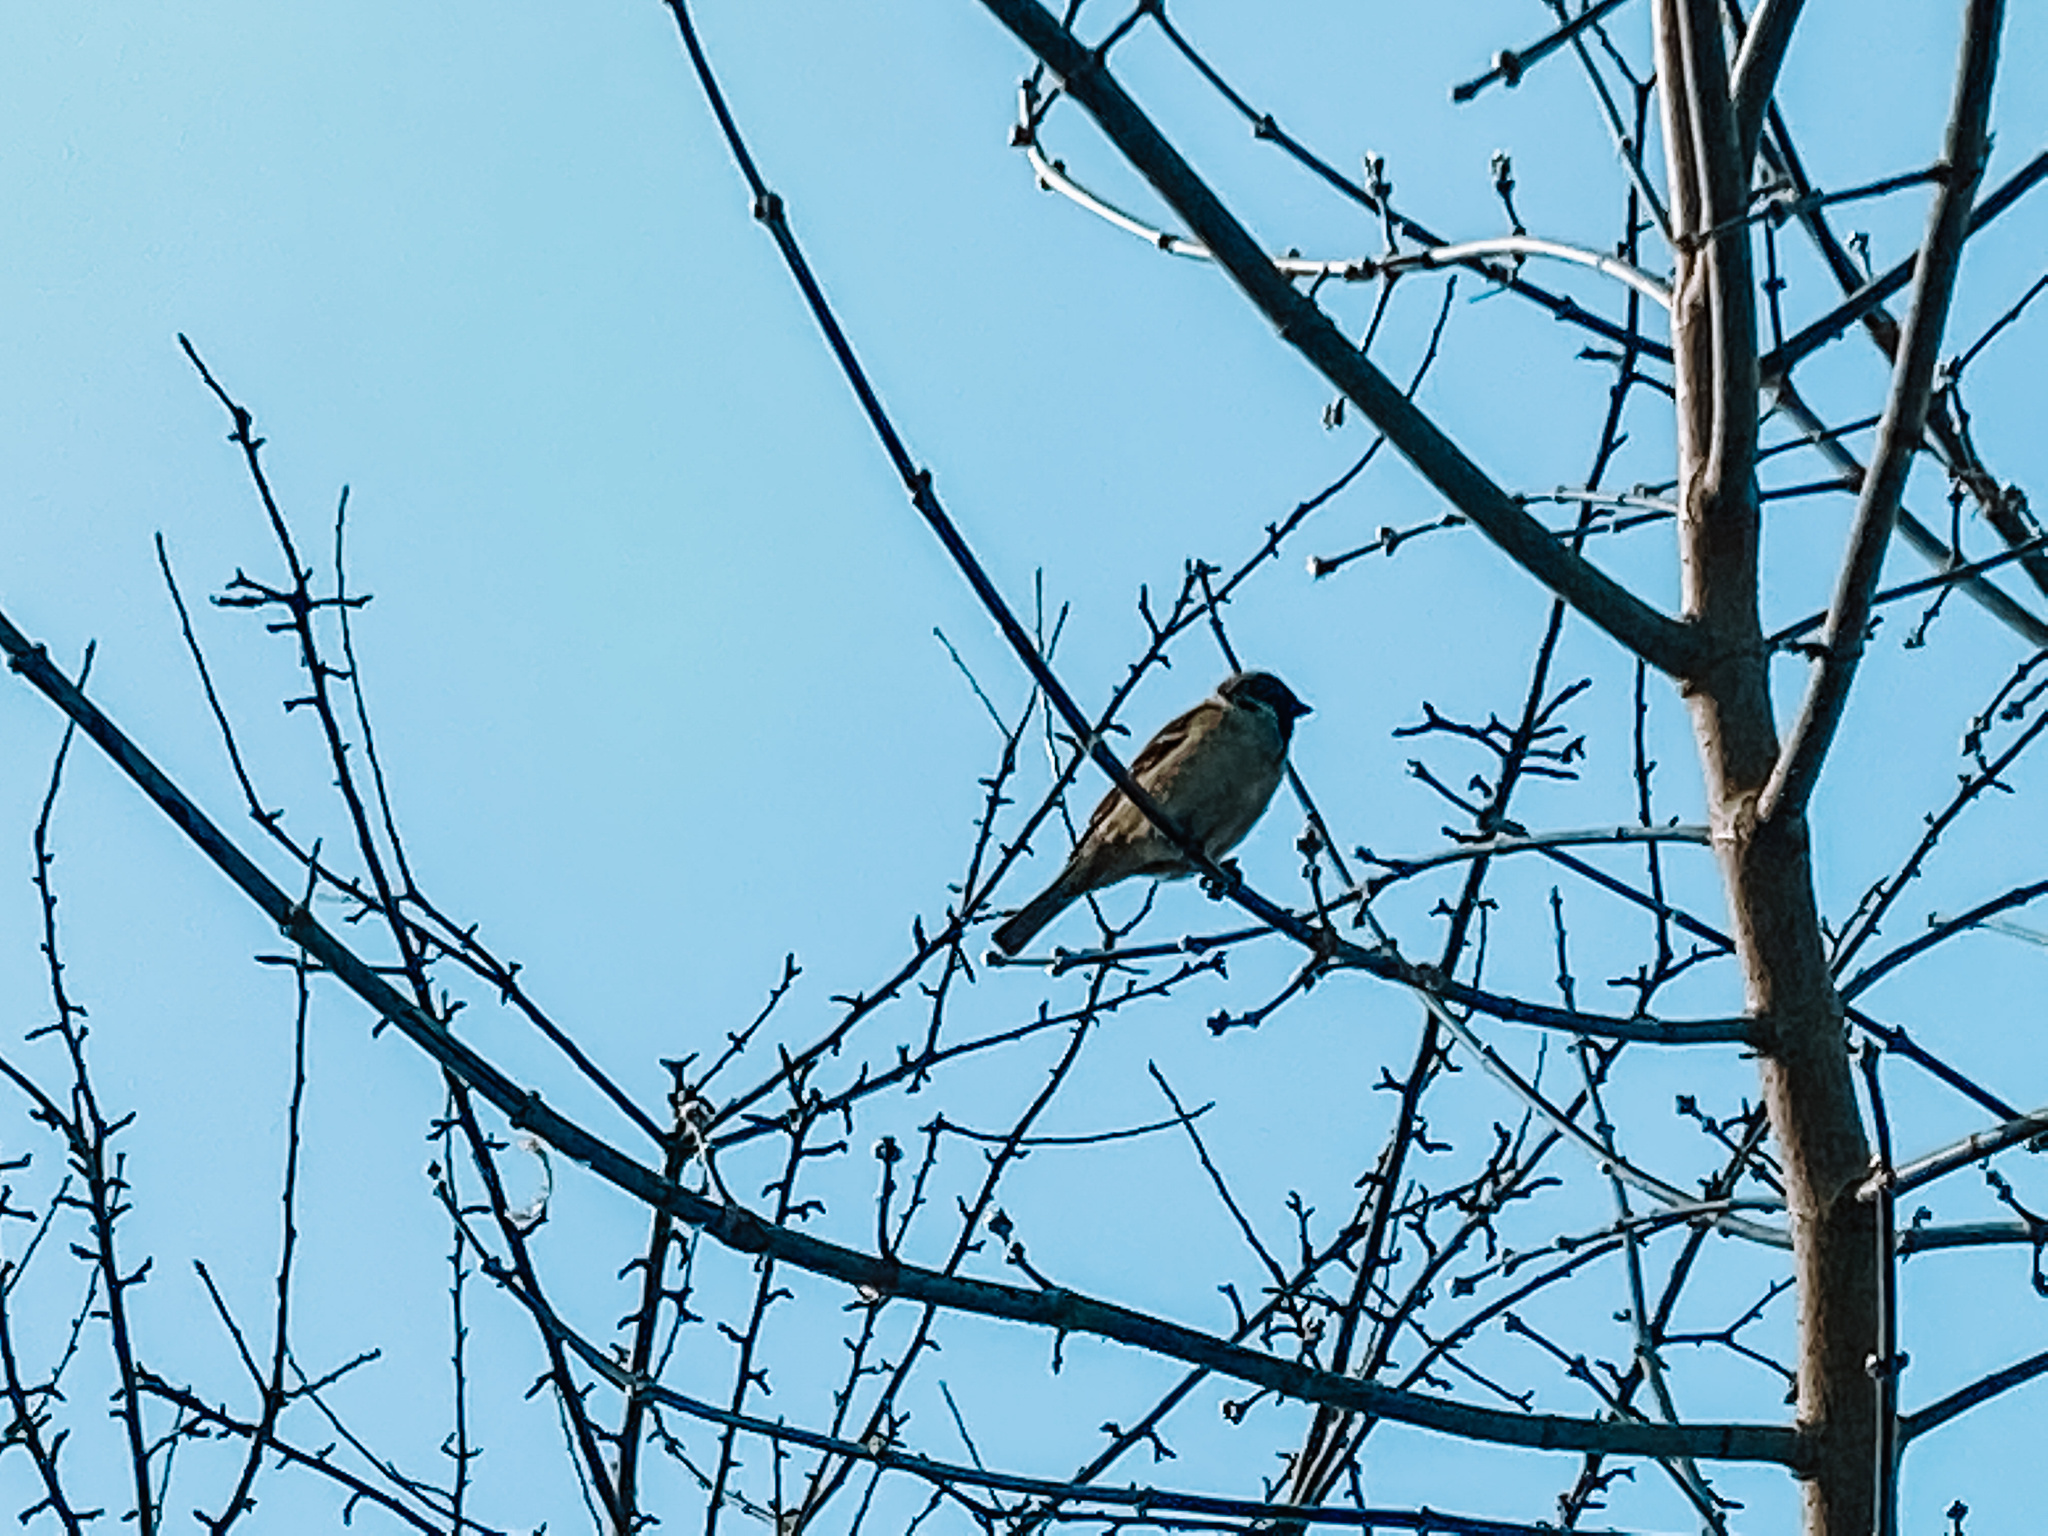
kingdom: Animalia
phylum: Chordata
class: Aves
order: Passeriformes
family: Passeridae
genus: Passer
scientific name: Passer montanus
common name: Eurasian tree sparrow
